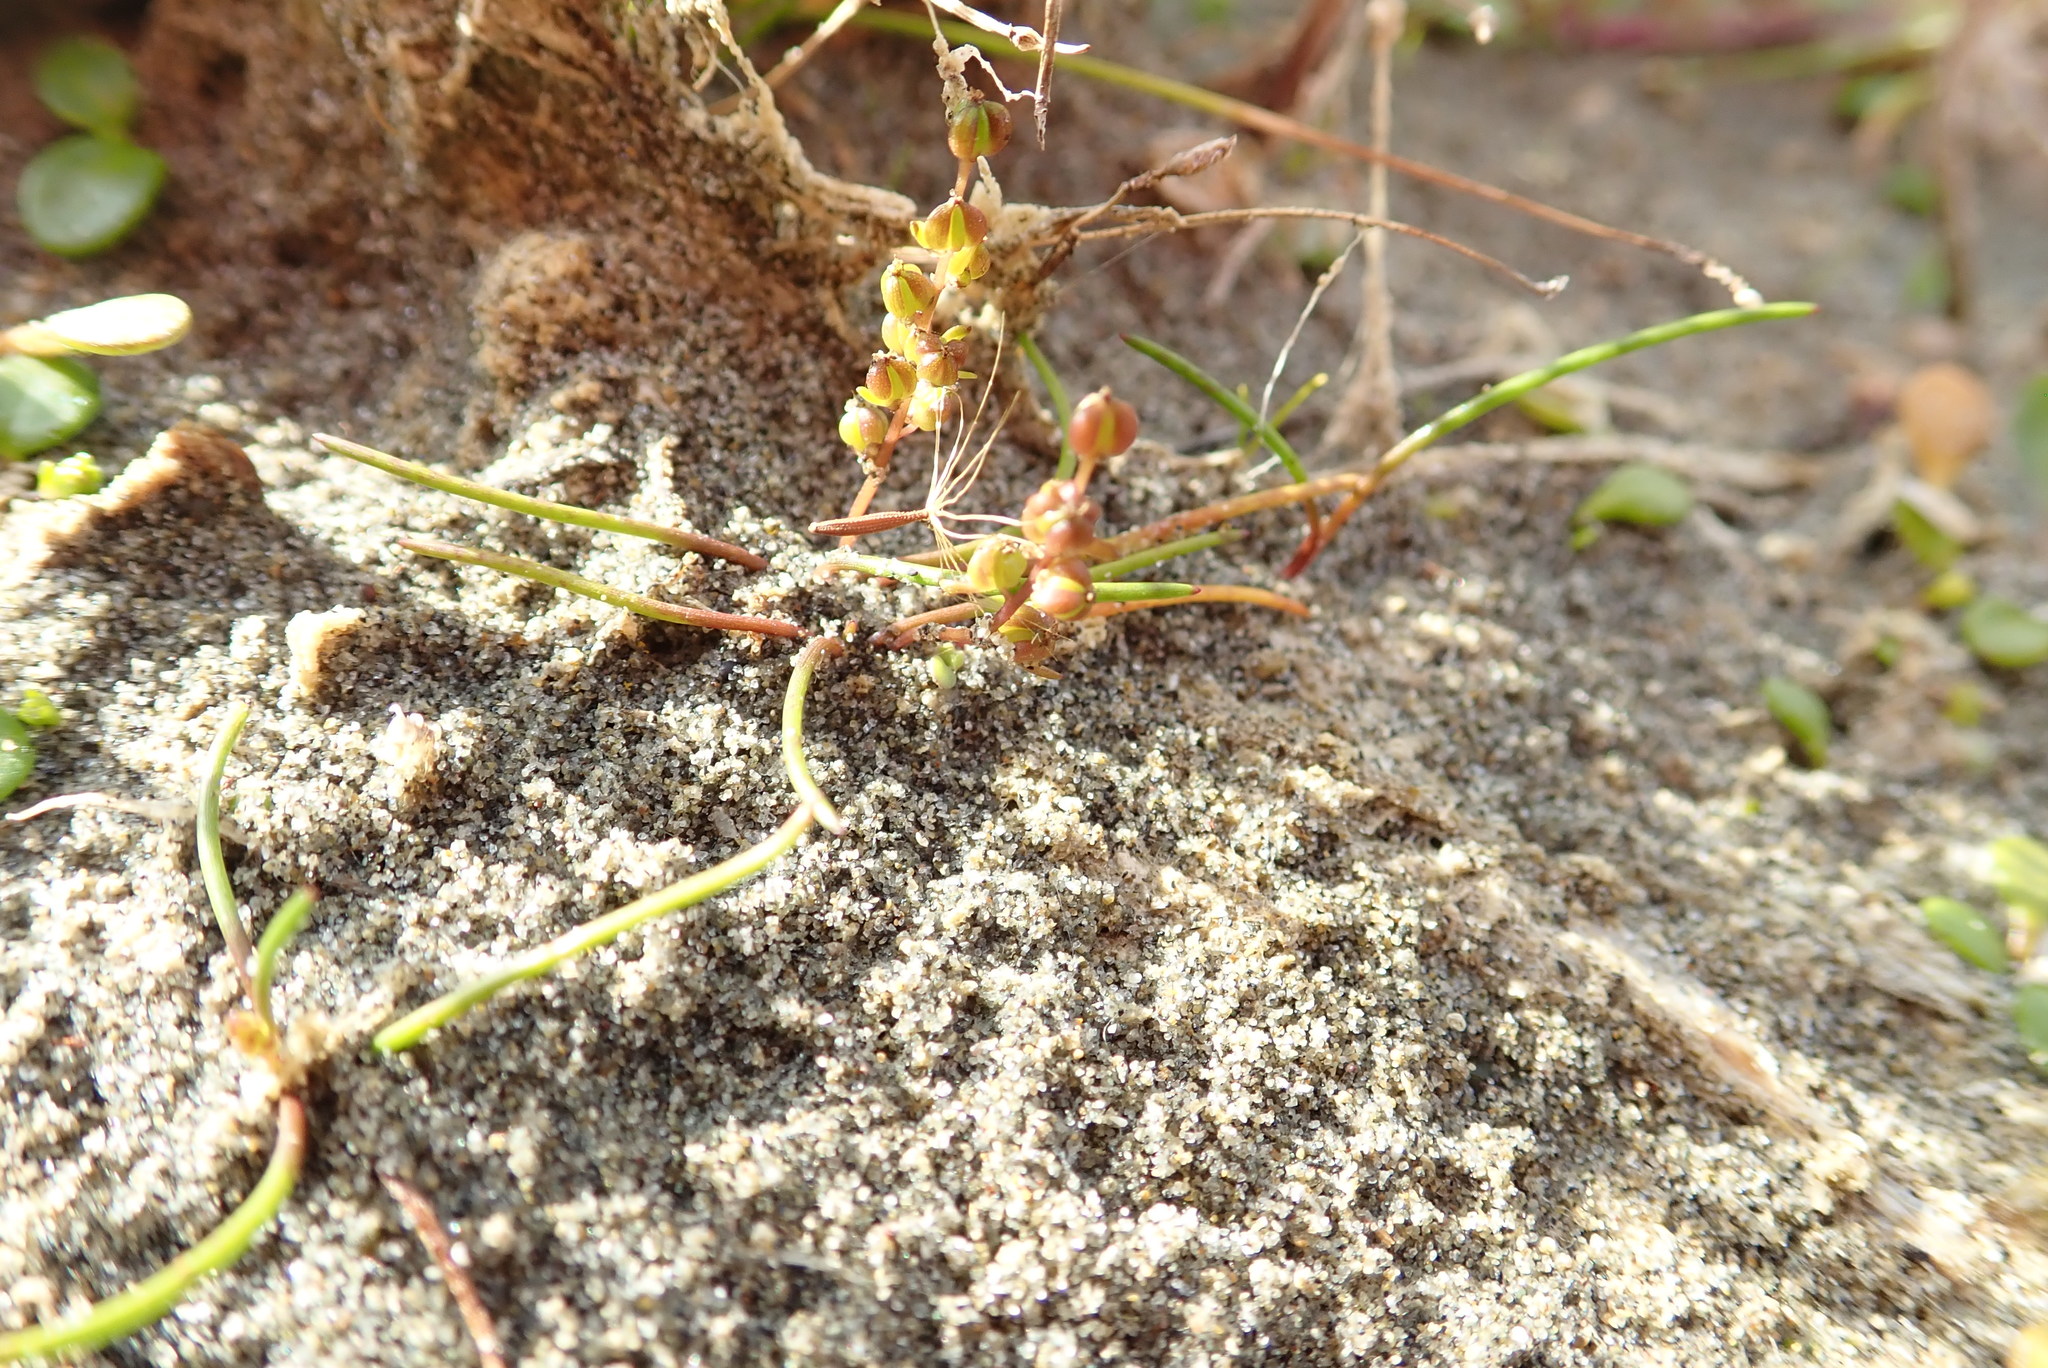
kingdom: Plantae
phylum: Tracheophyta
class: Liliopsida
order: Alismatales
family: Juncaginaceae
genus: Triglochin
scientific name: Triglochin striata
